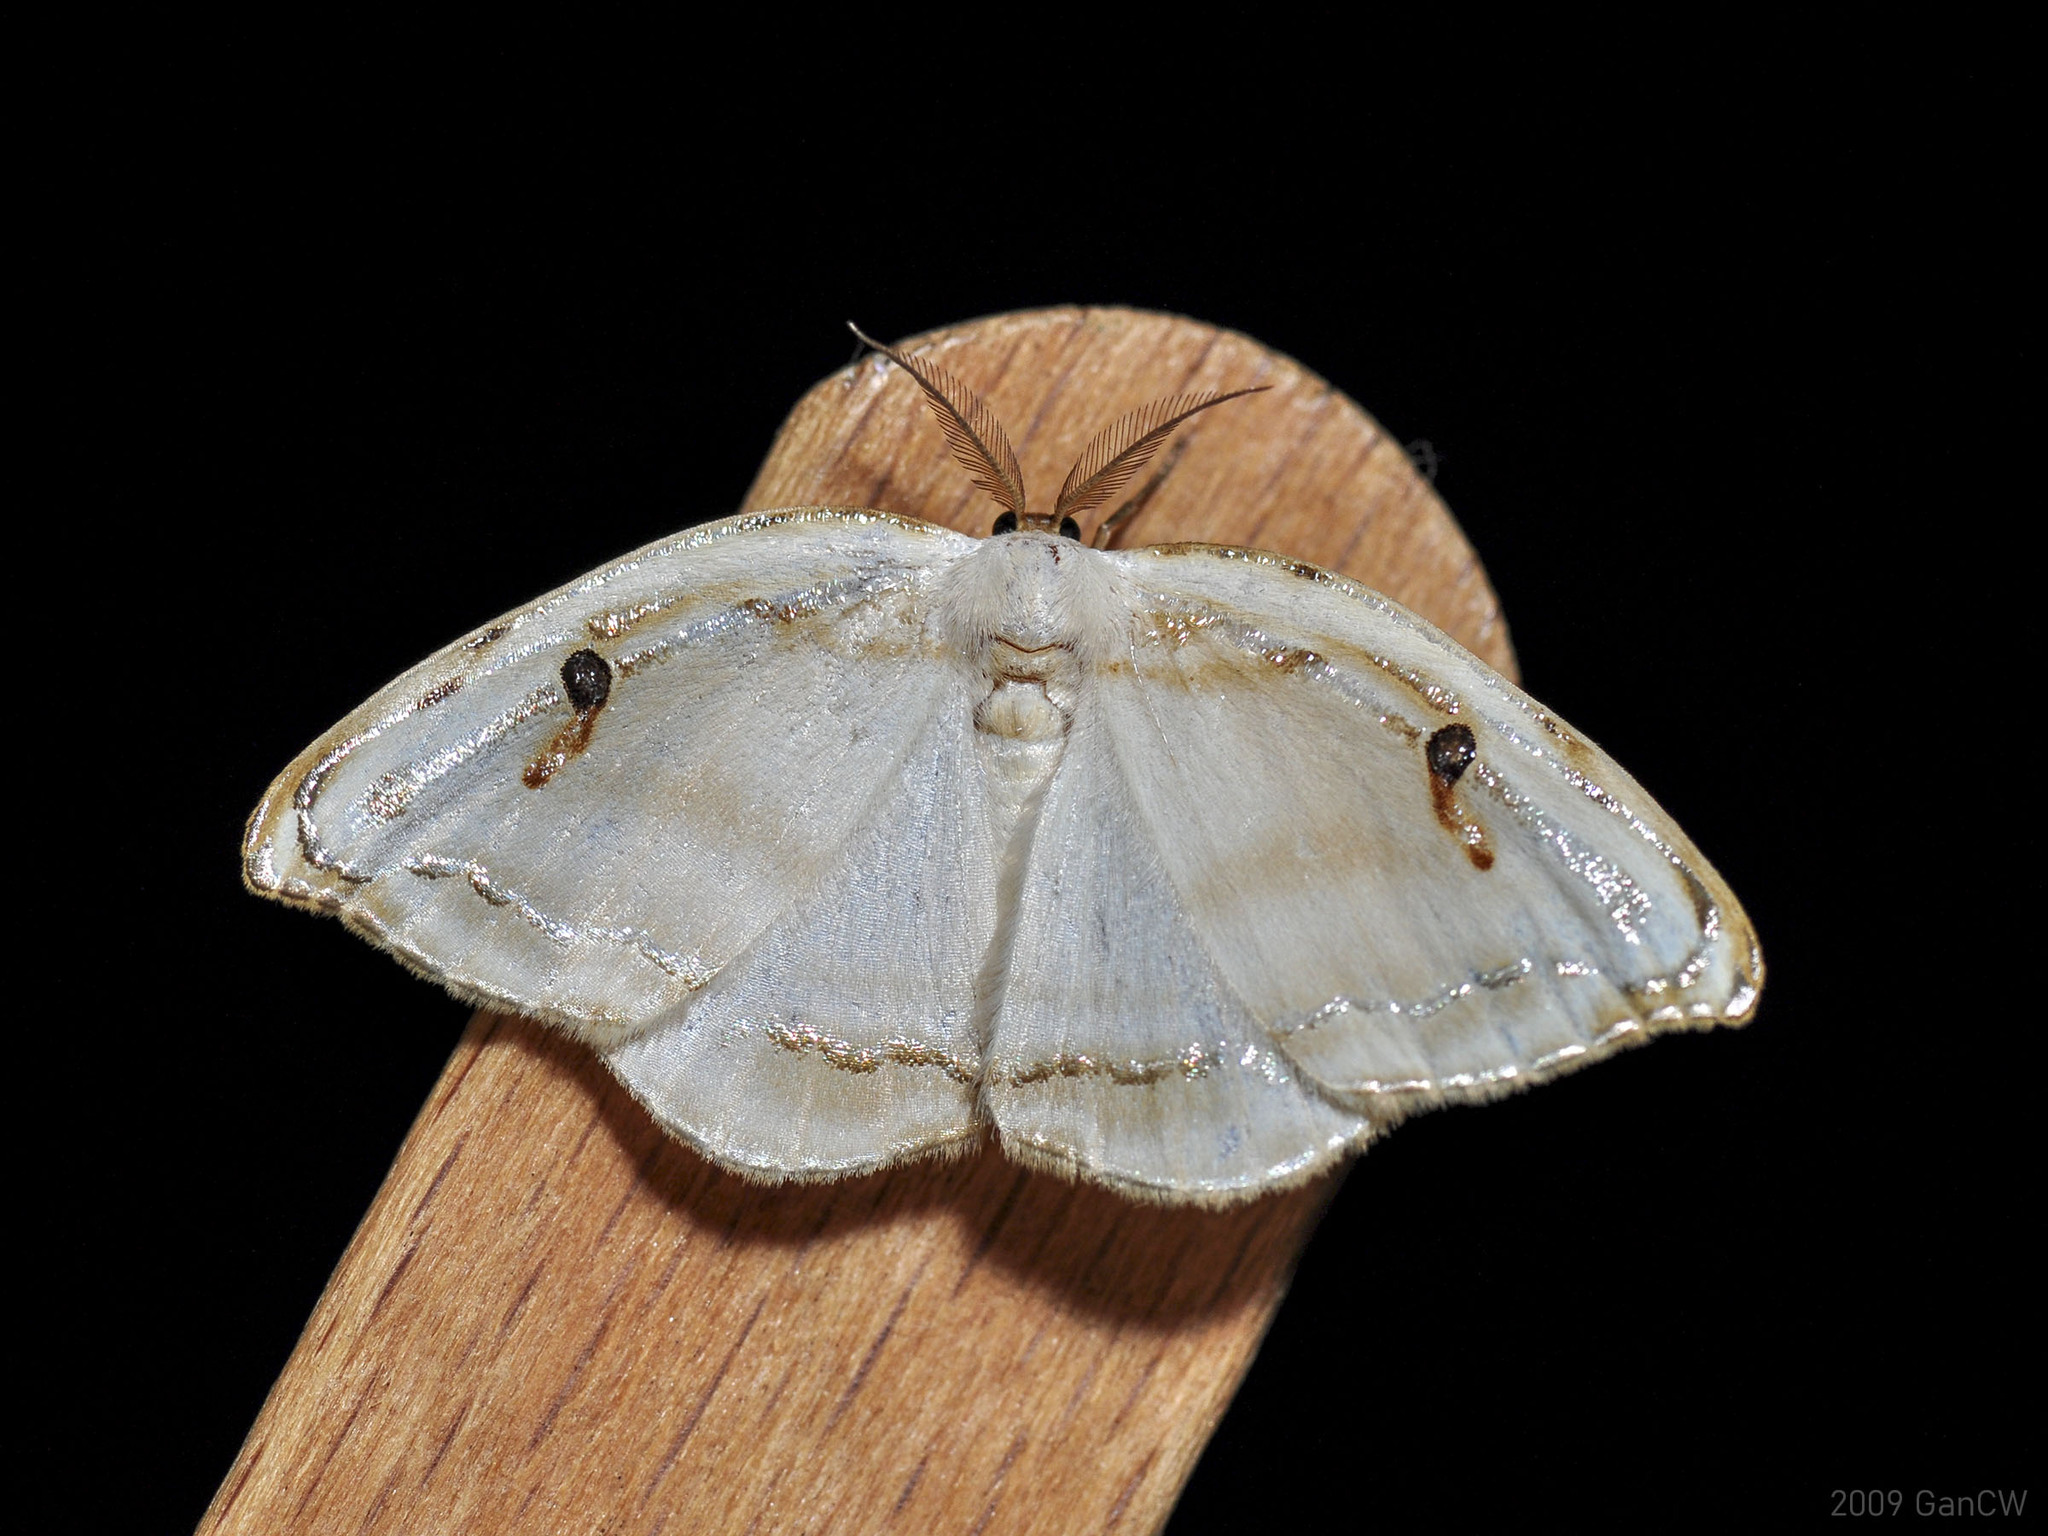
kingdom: Animalia
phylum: Arthropoda
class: Insecta
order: Lepidoptera
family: Drepanidae
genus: Callidrepana
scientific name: Callidrepana gelidata
